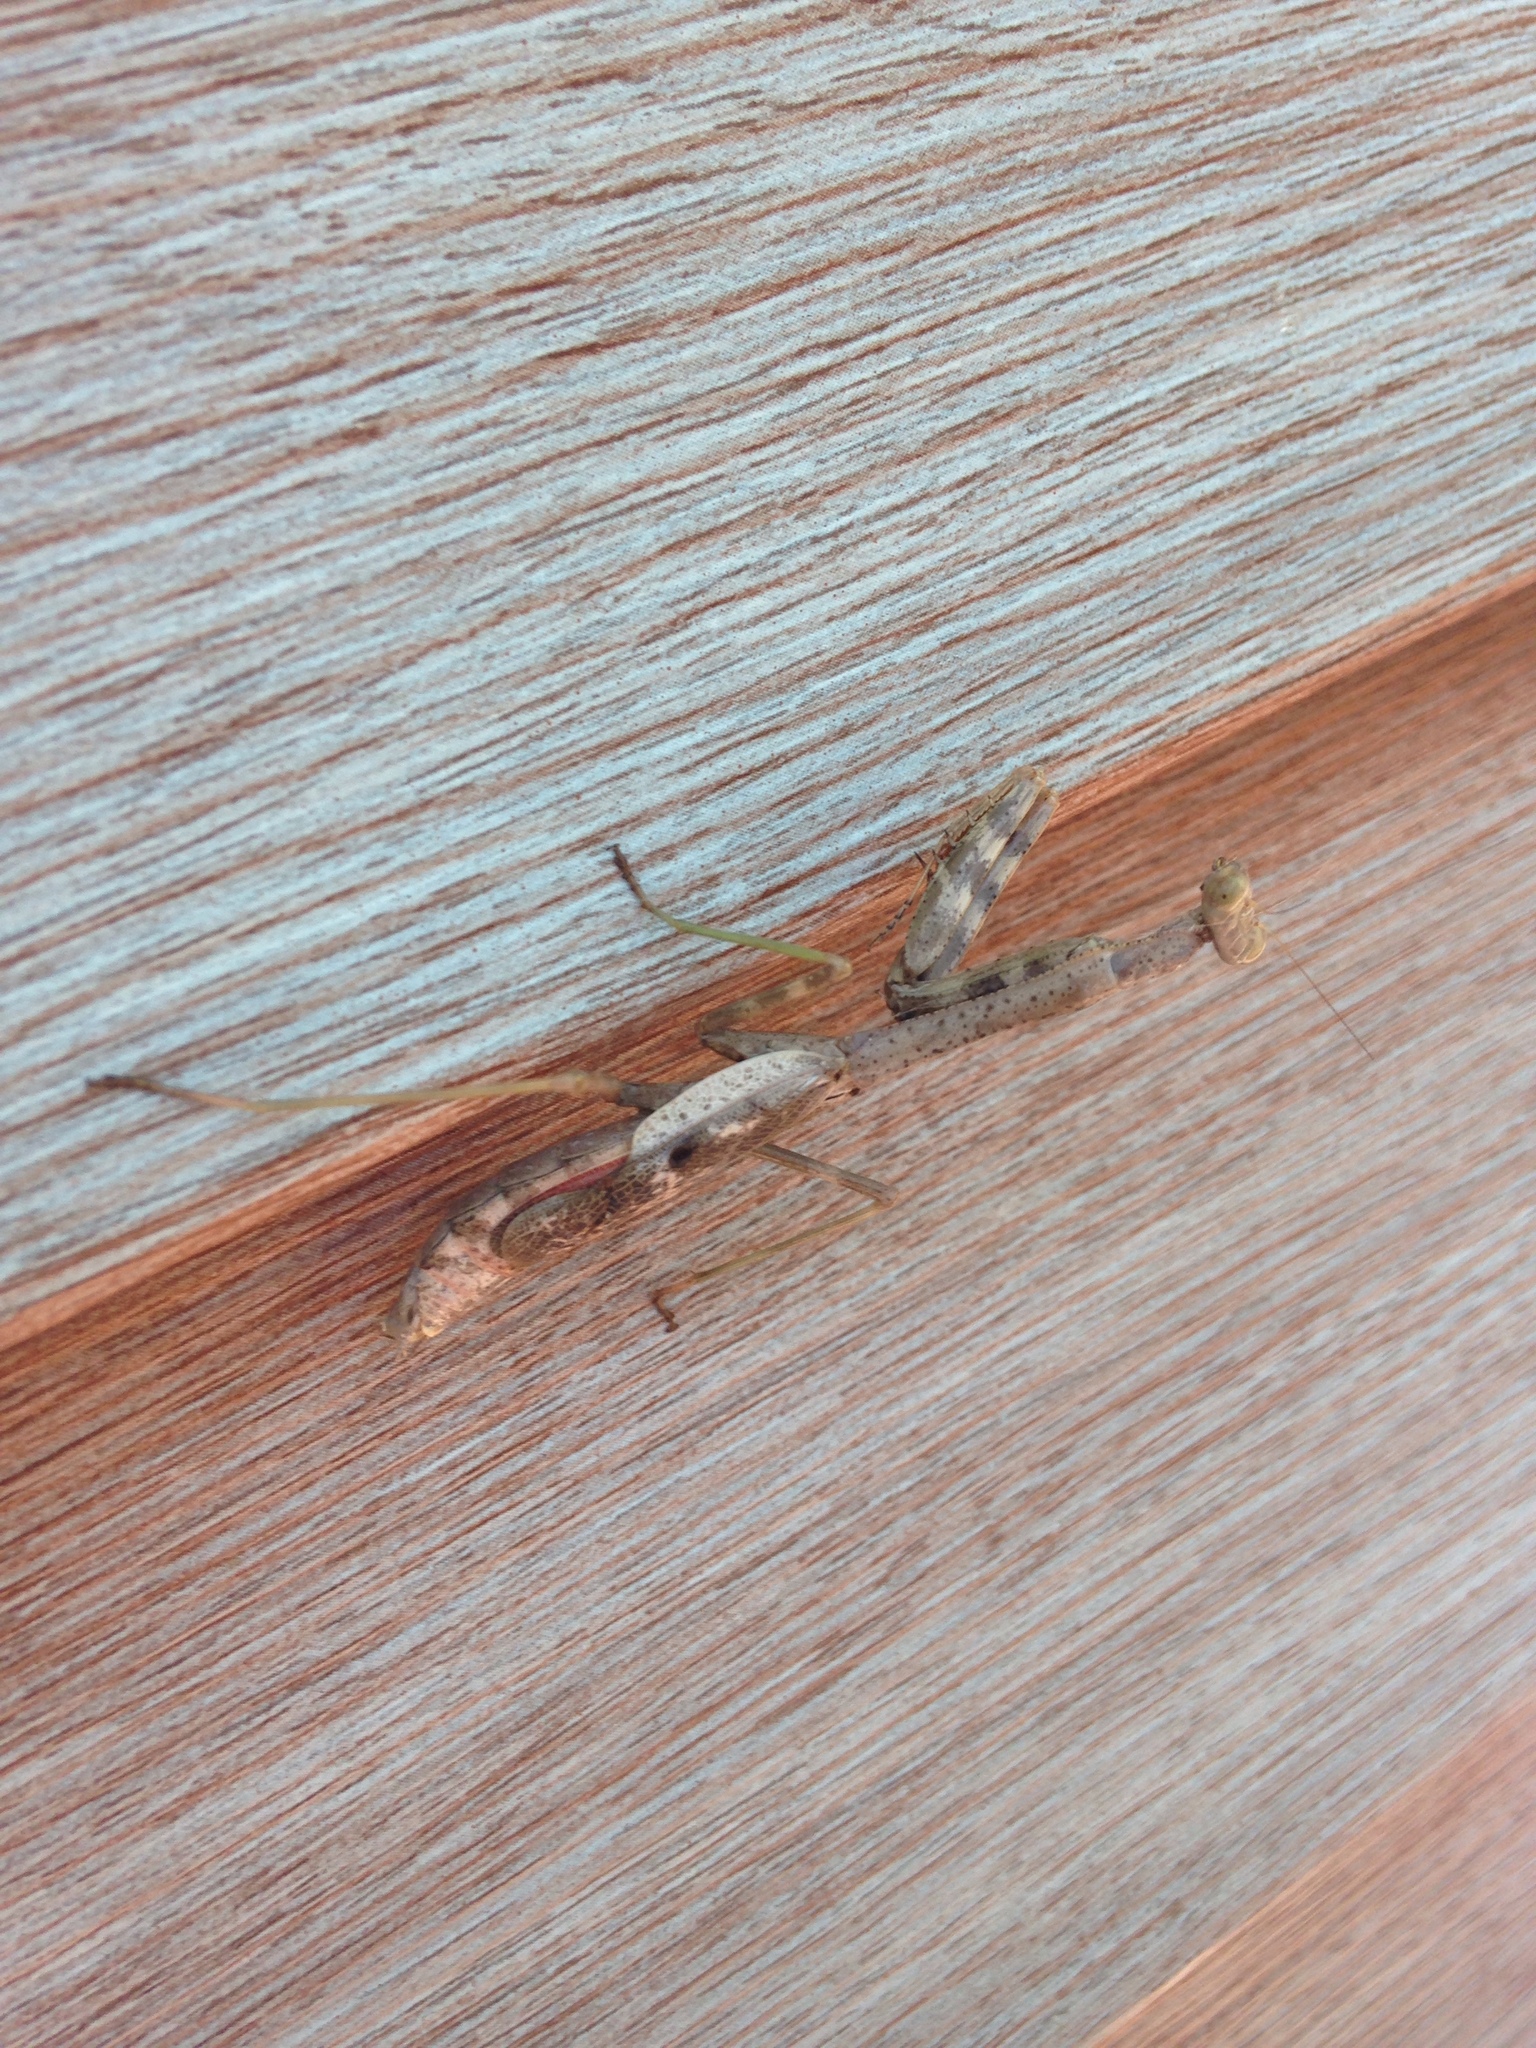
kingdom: Animalia
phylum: Arthropoda
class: Insecta
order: Mantodea
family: Mantidae
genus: Stagmomantis
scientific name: Stagmomantis carolina
